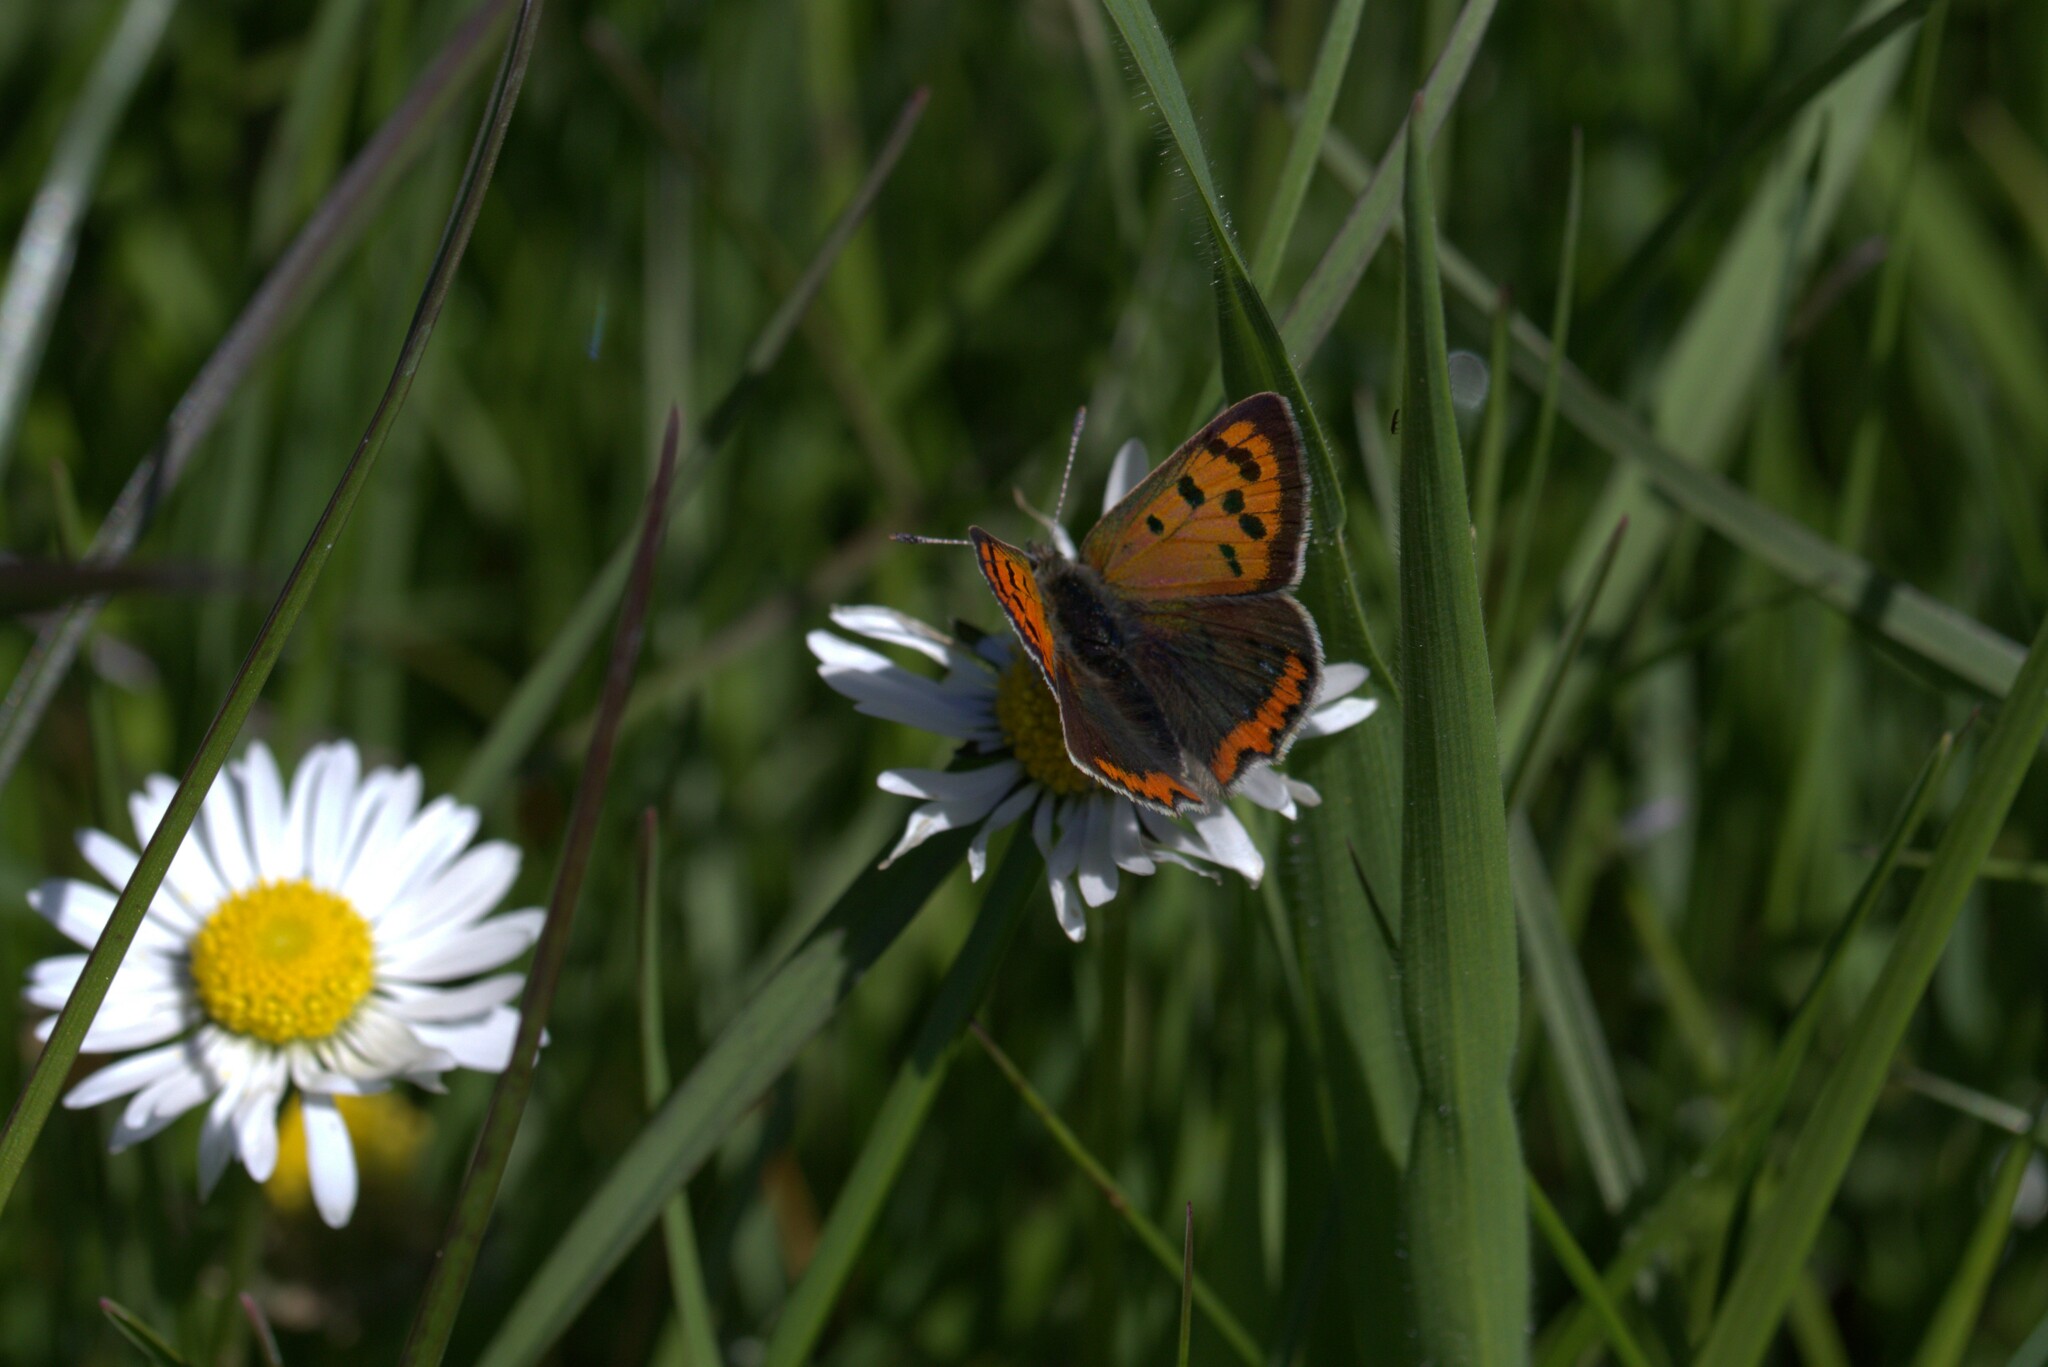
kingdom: Animalia
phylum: Arthropoda
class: Insecta
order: Lepidoptera
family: Lycaenidae
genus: Lycaena
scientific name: Lycaena phlaeas
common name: Small copper
